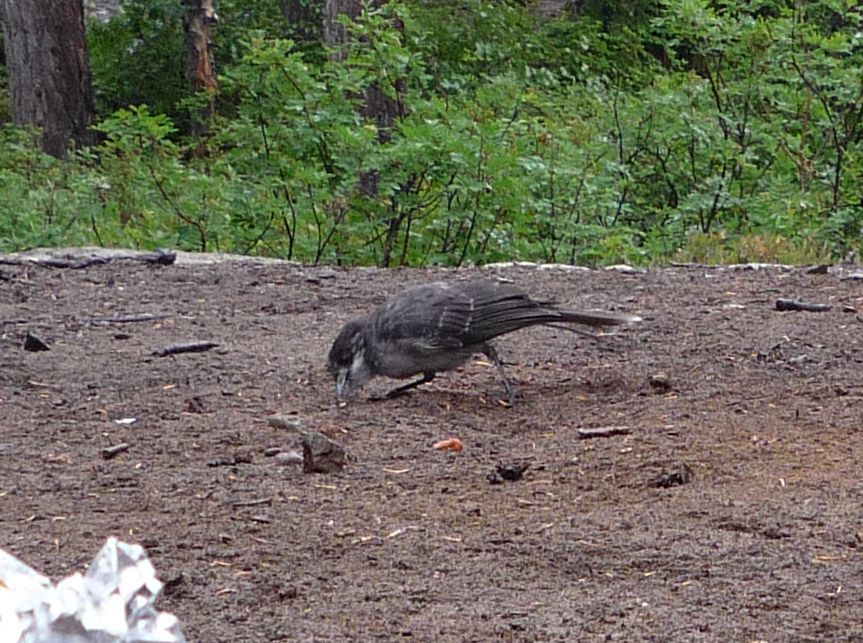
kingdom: Animalia
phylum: Chordata
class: Aves
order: Passeriformes
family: Corvidae
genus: Perisoreus
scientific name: Perisoreus canadensis
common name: Gray jay
